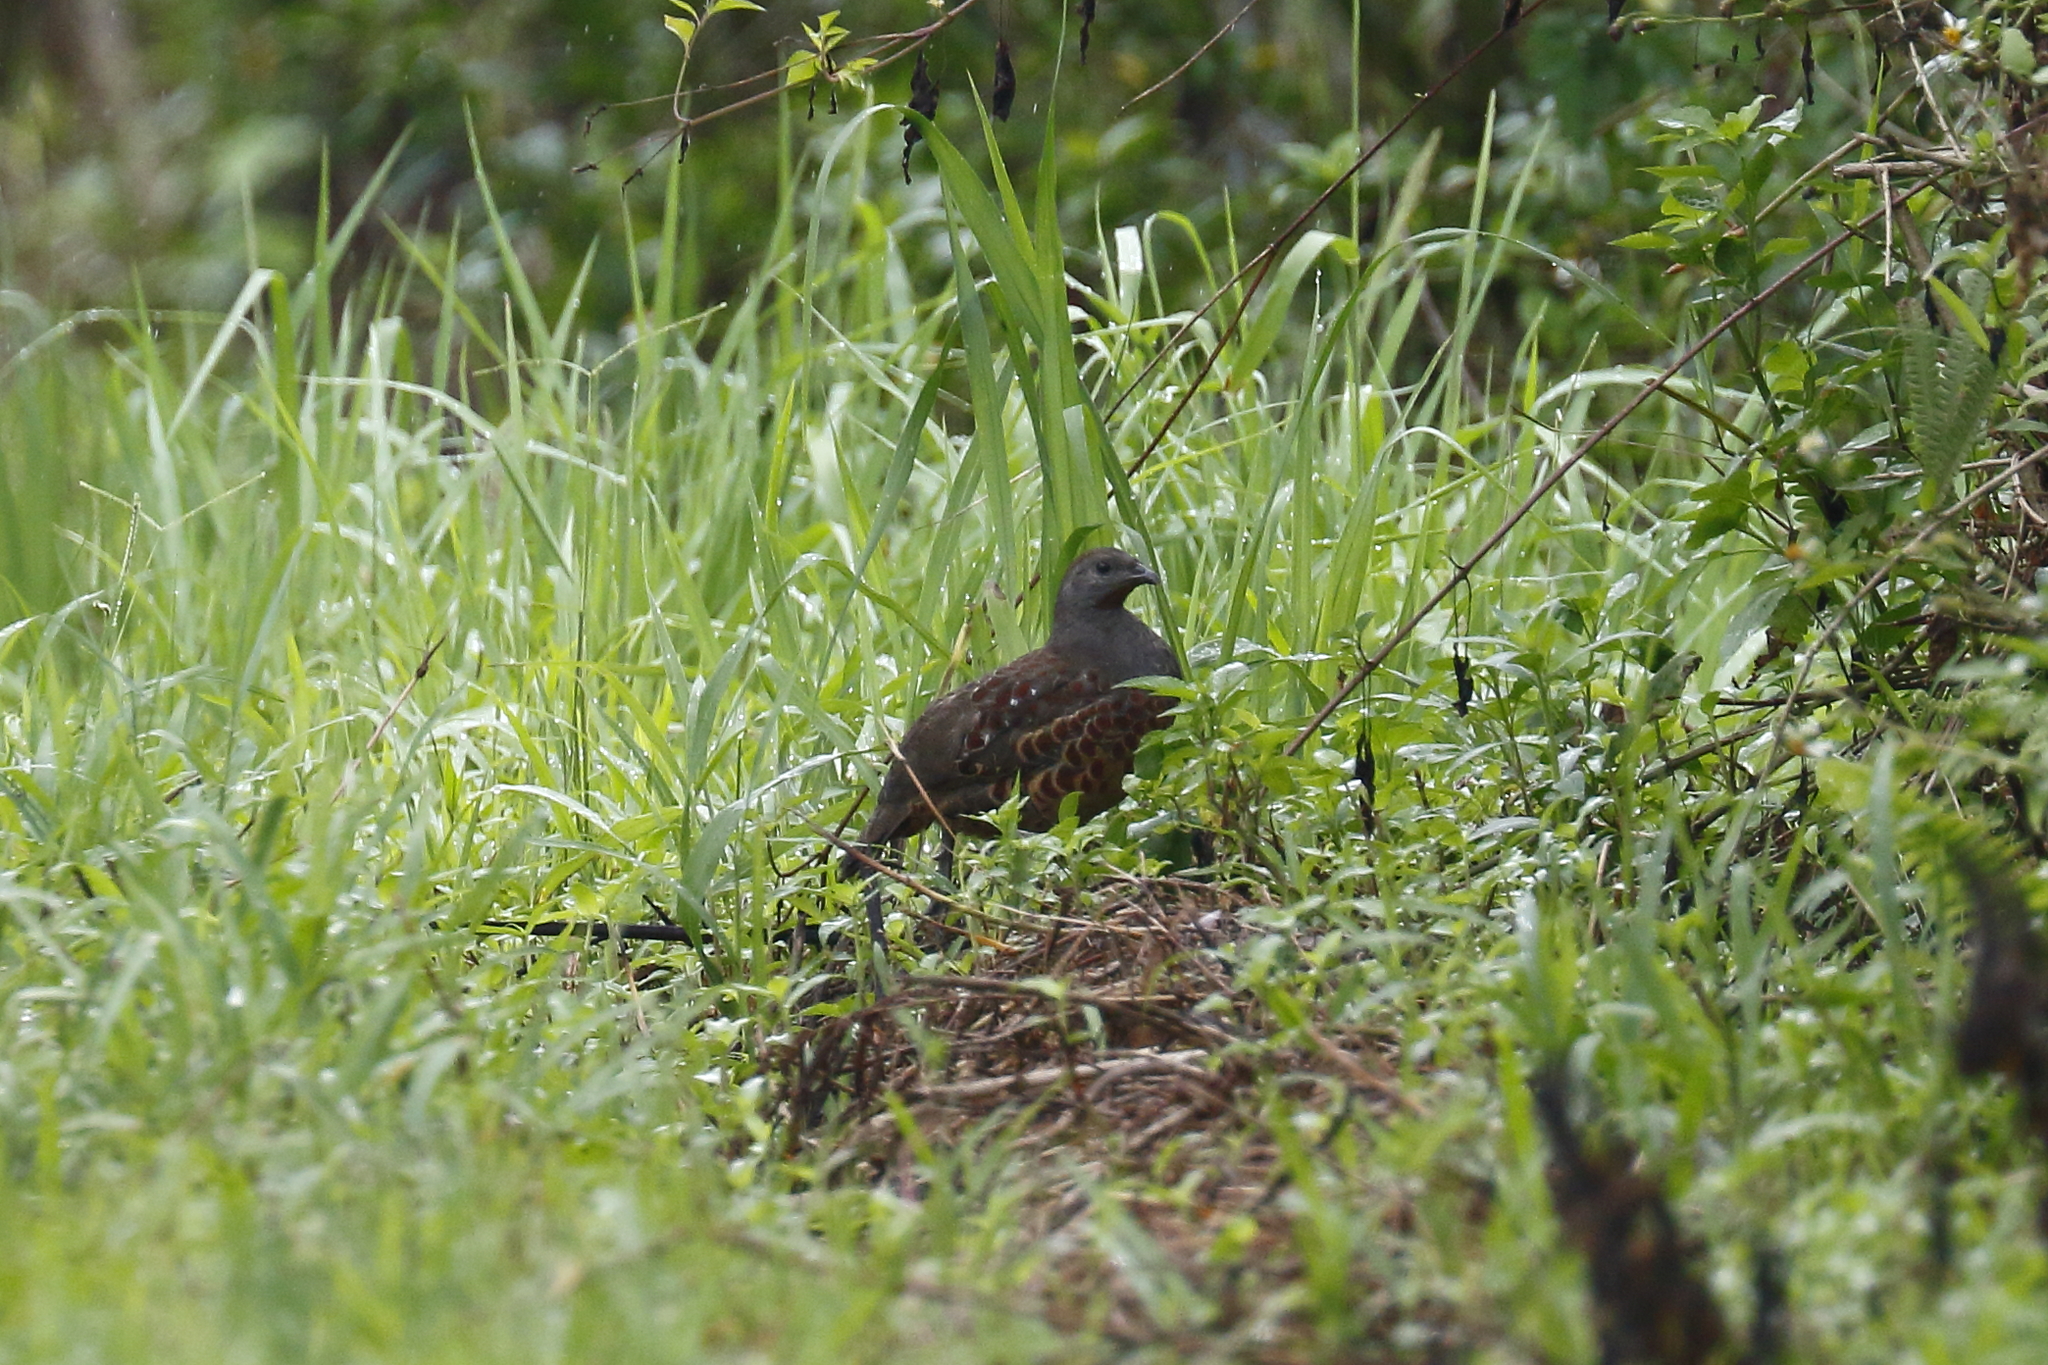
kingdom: Animalia
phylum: Chordata
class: Aves
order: Galliformes
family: Phasianidae
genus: Bambusicola
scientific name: Bambusicola sonorivox
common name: Taiwan bamboo-partridge
